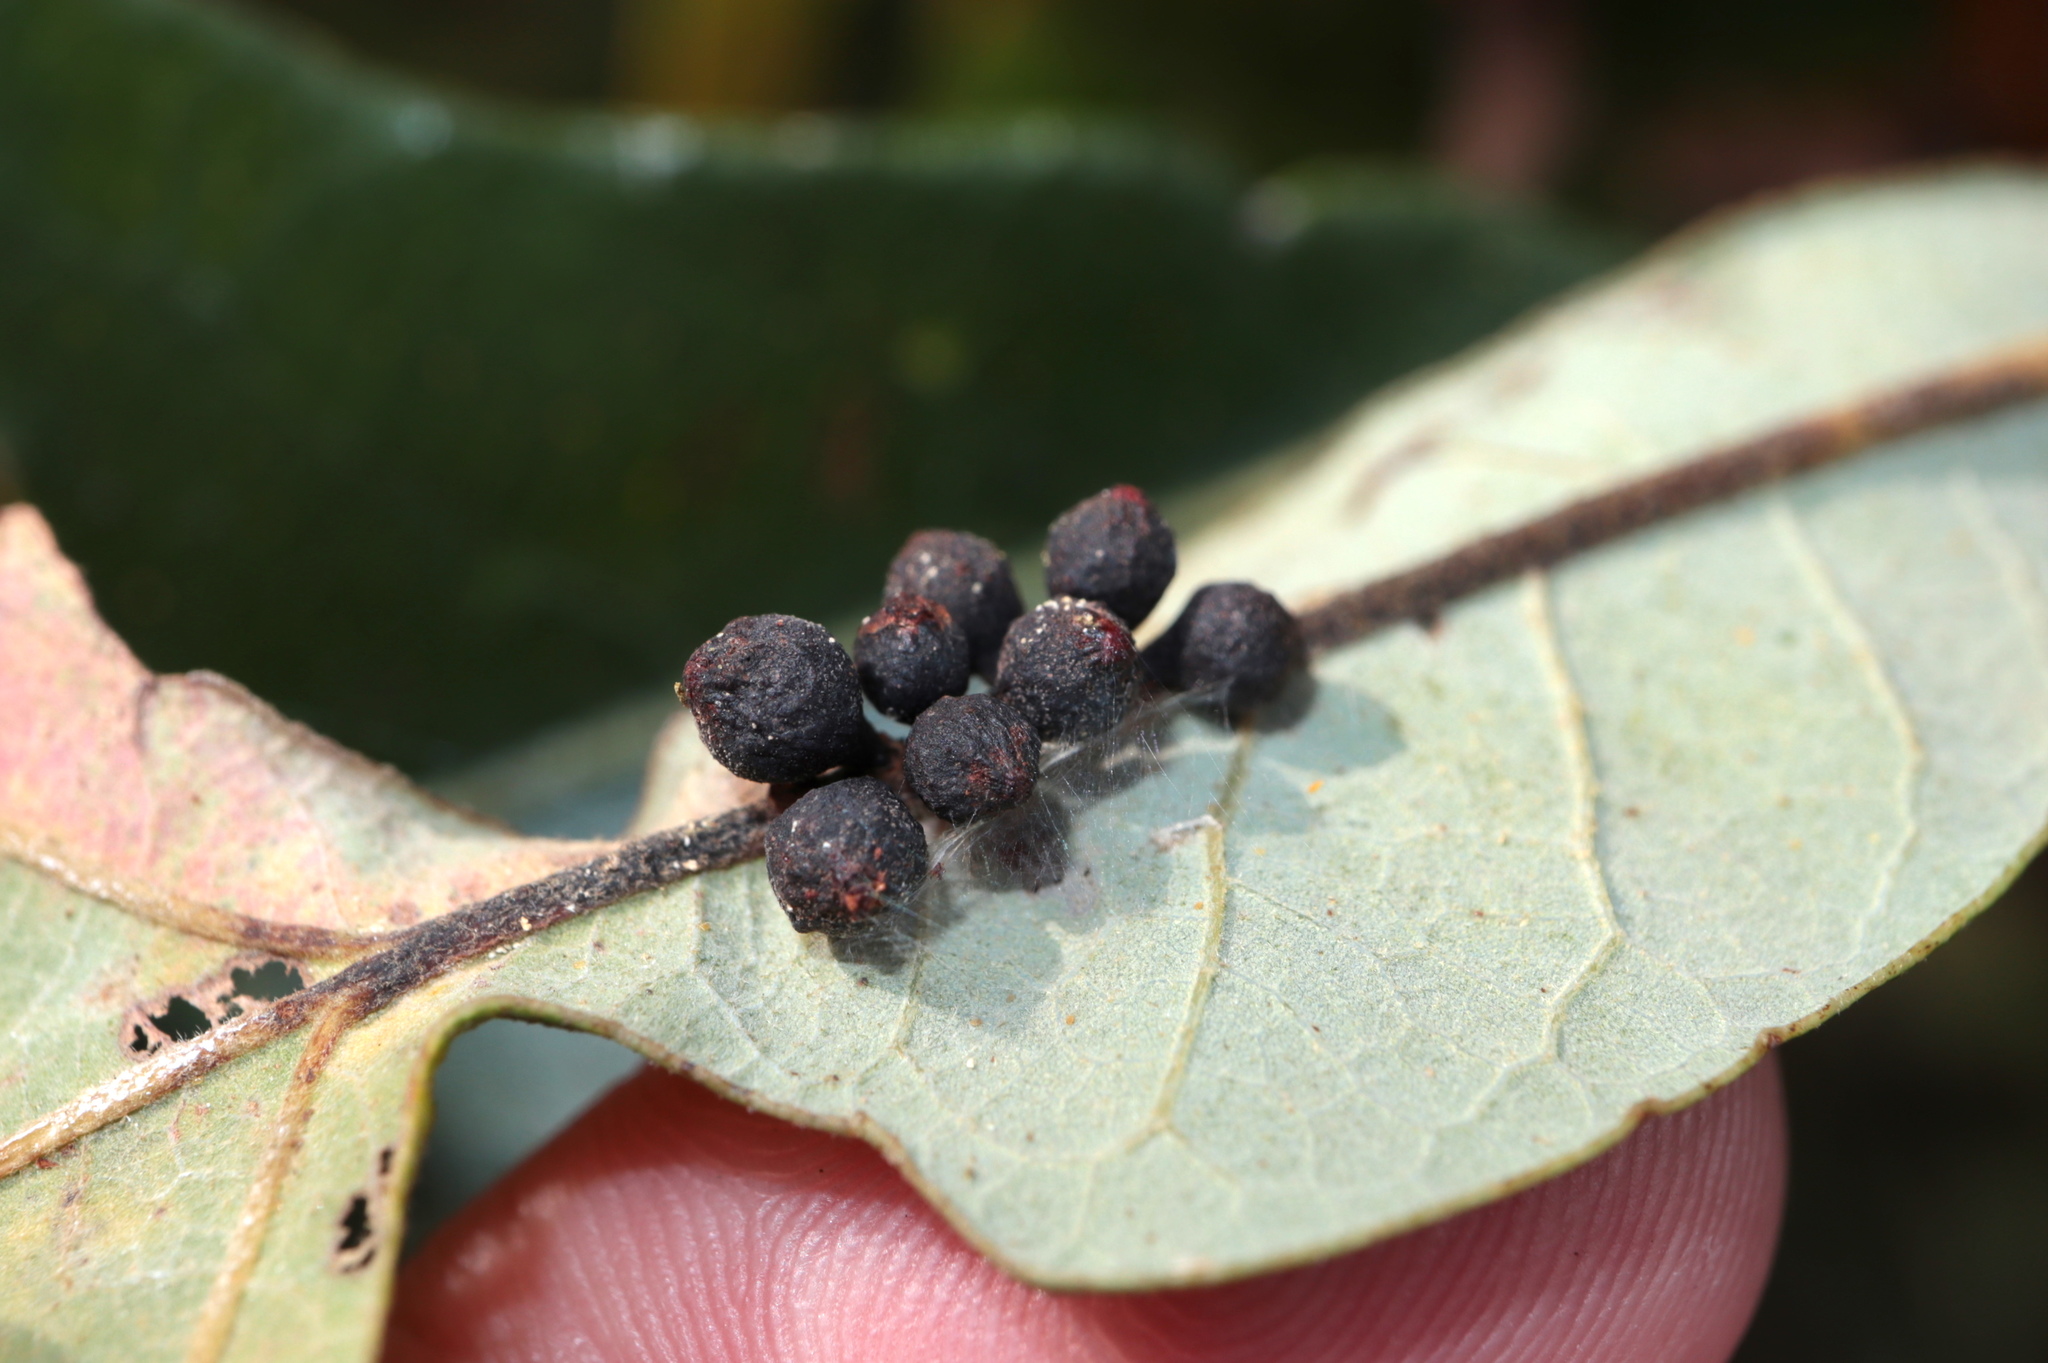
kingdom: Animalia
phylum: Arthropoda
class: Insecta
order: Hymenoptera
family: Cynipidae
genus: Andricus
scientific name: Andricus
